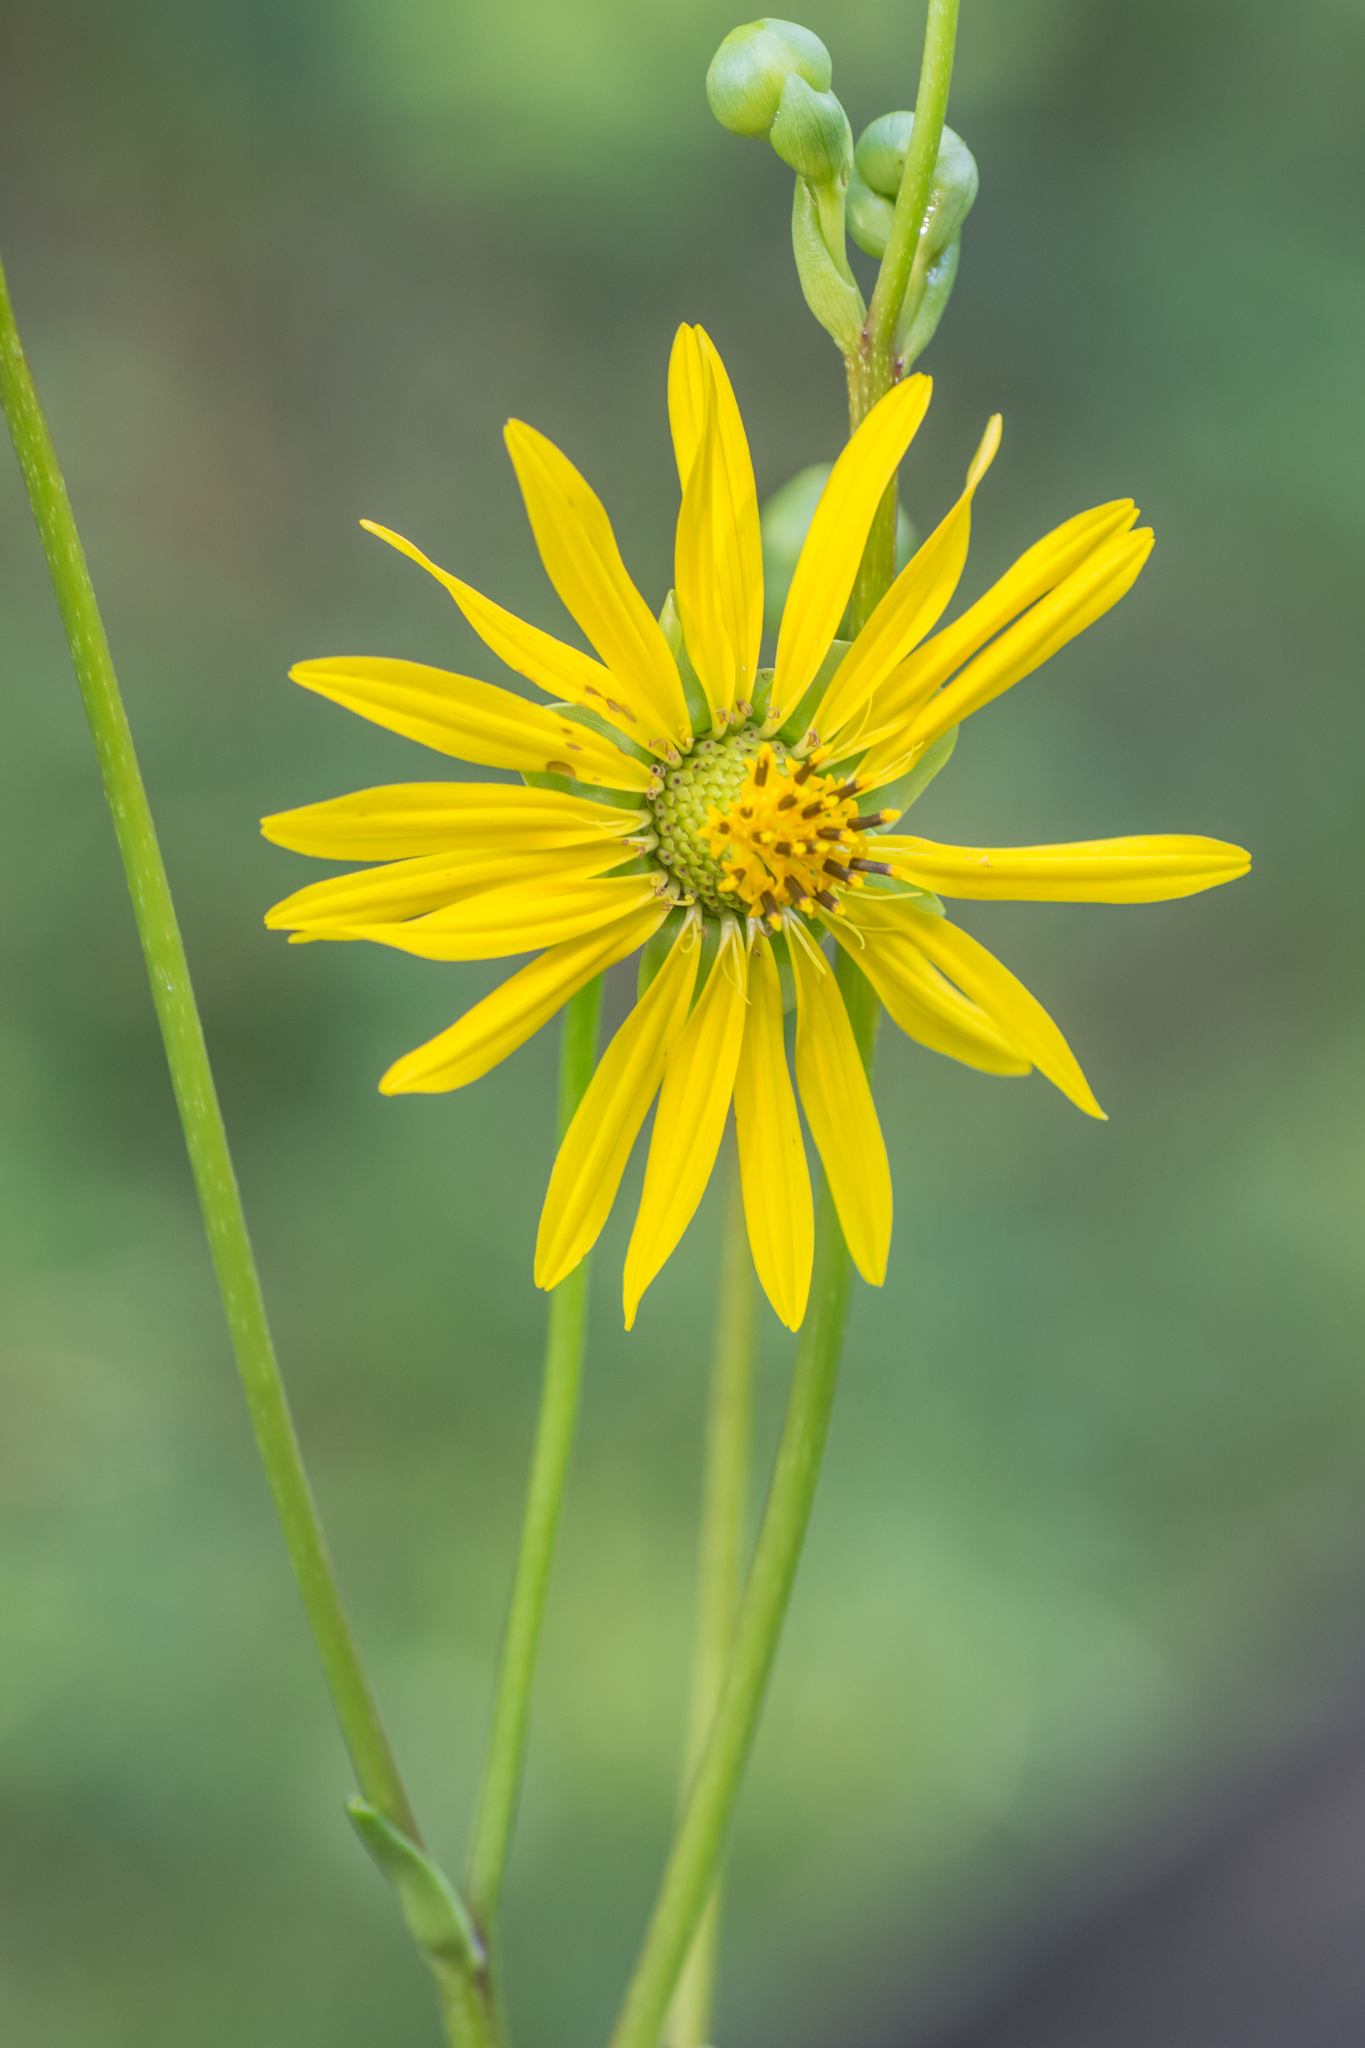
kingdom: Plantae
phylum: Tracheophyta
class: Magnoliopsida
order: Asterales
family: Asteraceae
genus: Silphium
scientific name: Silphium terebinthinaceum
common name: Basal-leaf rosinweed
